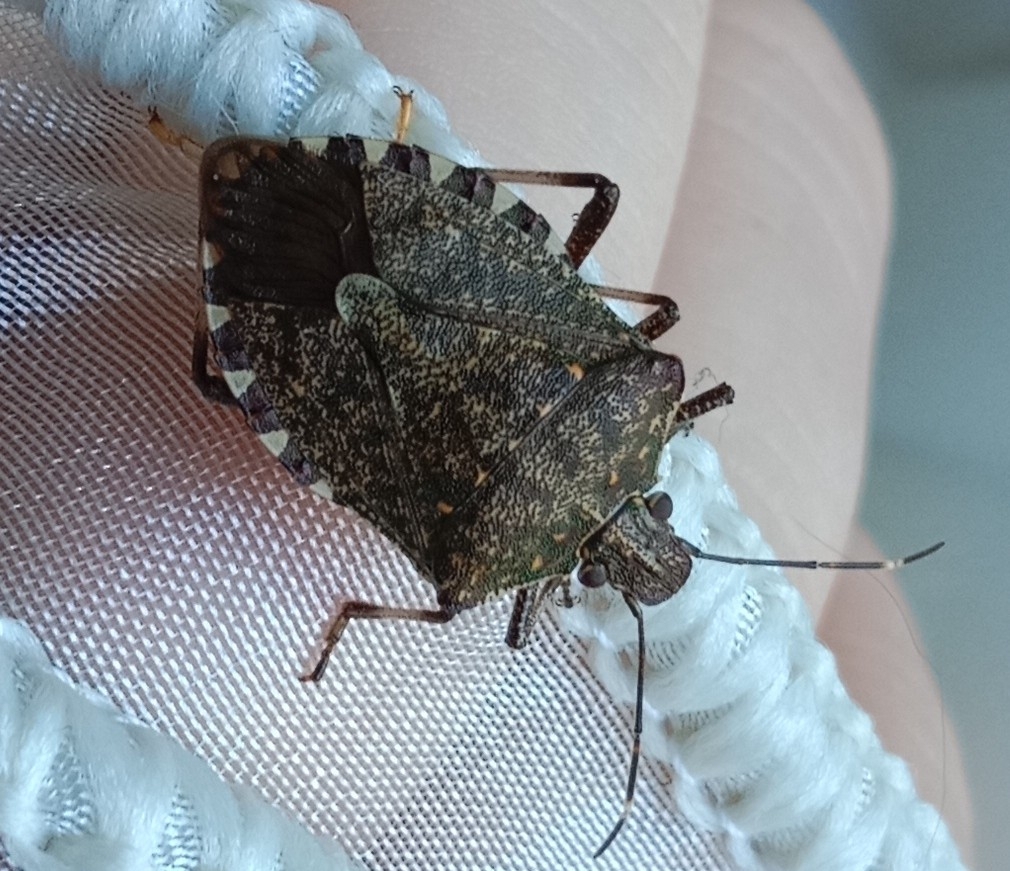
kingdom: Animalia
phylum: Arthropoda
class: Insecta
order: Hemiptera
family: Pentatomidae
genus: Halyomorpha
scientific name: Halyomorpha halys
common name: Brown marmorated stink bug
